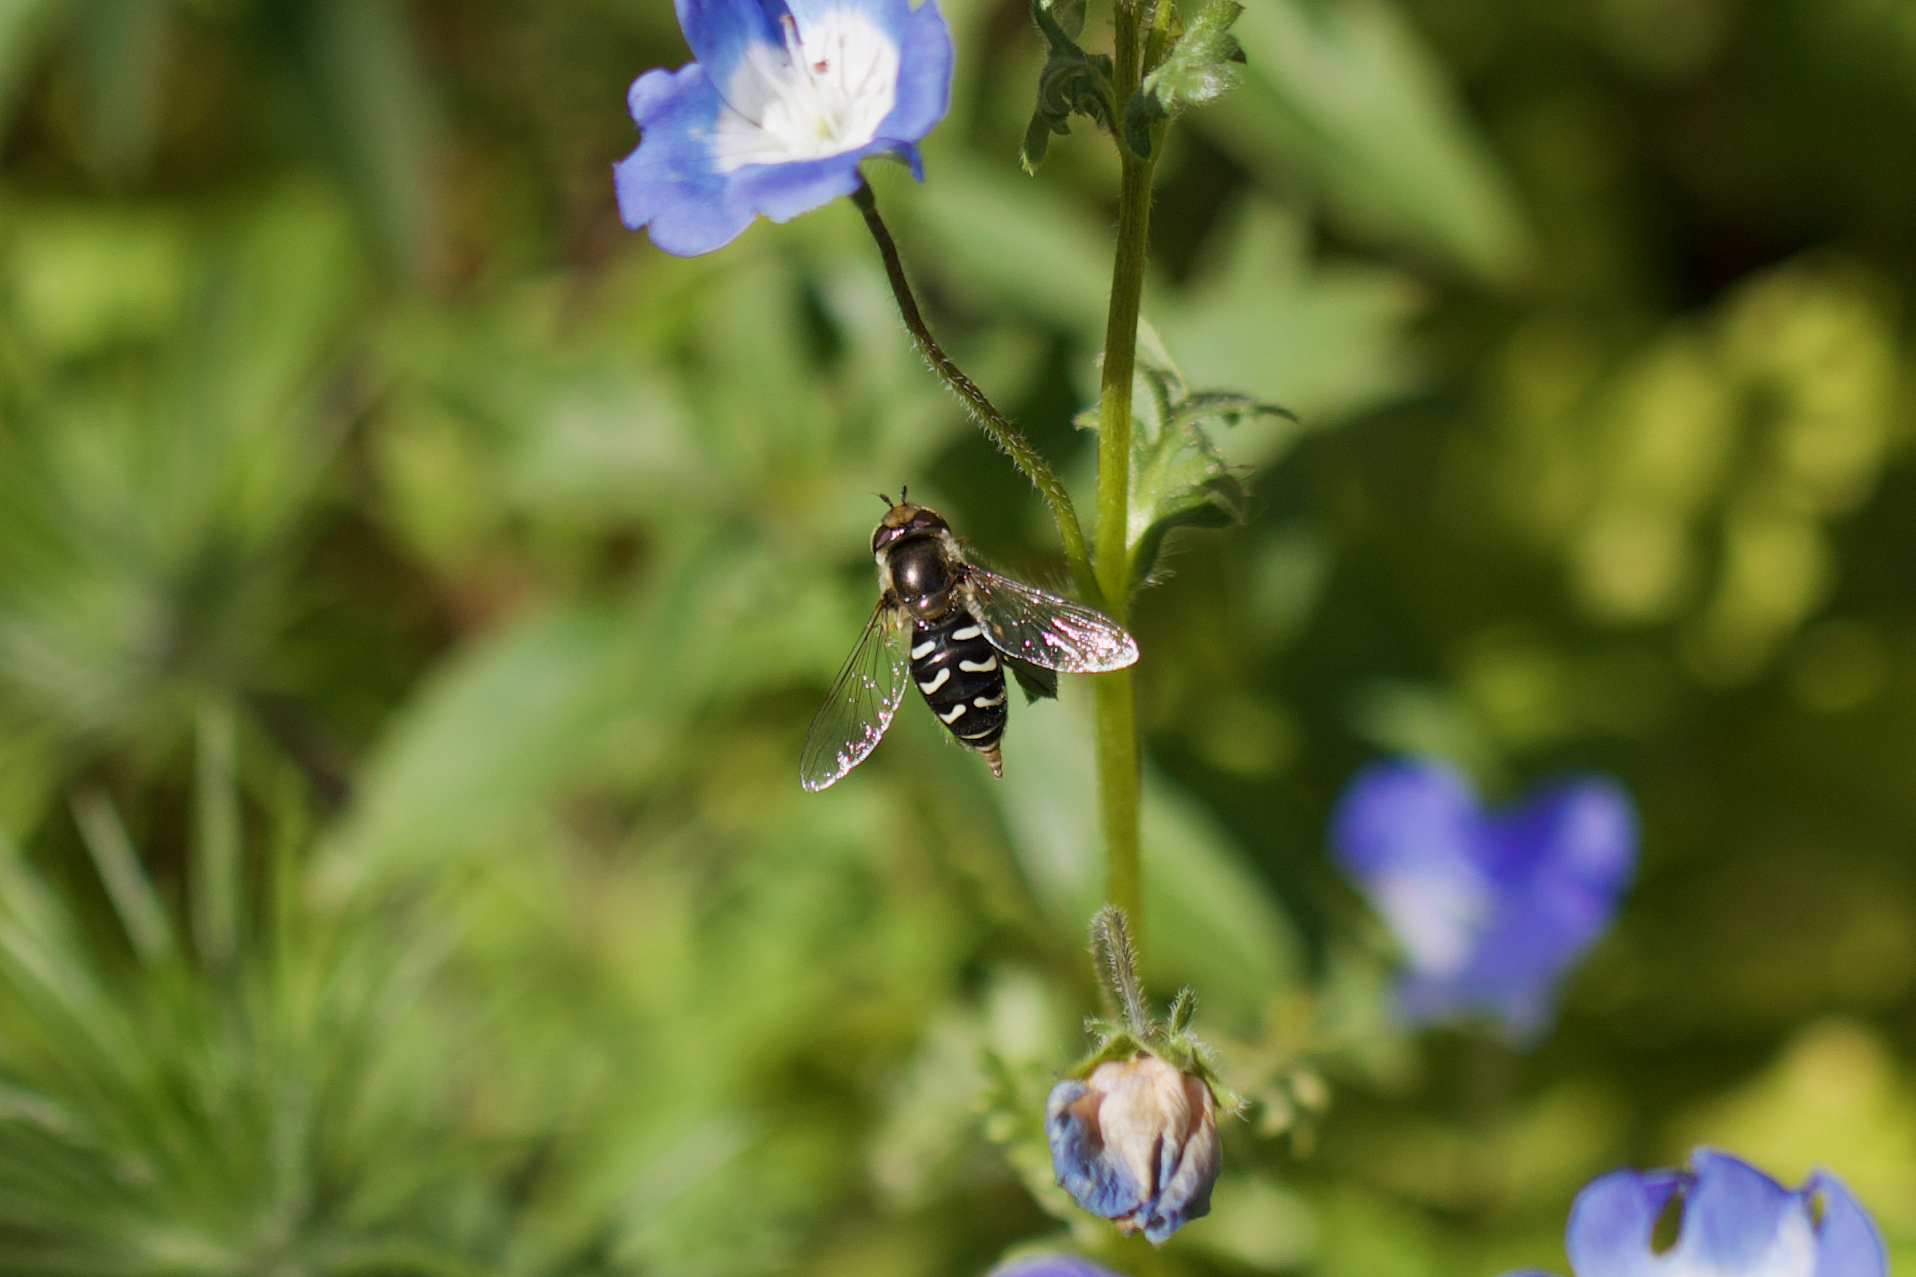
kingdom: Animalia
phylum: Arthropoda
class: Insecta
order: Diptera
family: Syrphidae
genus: Scaeva
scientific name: Scaeva affinis
